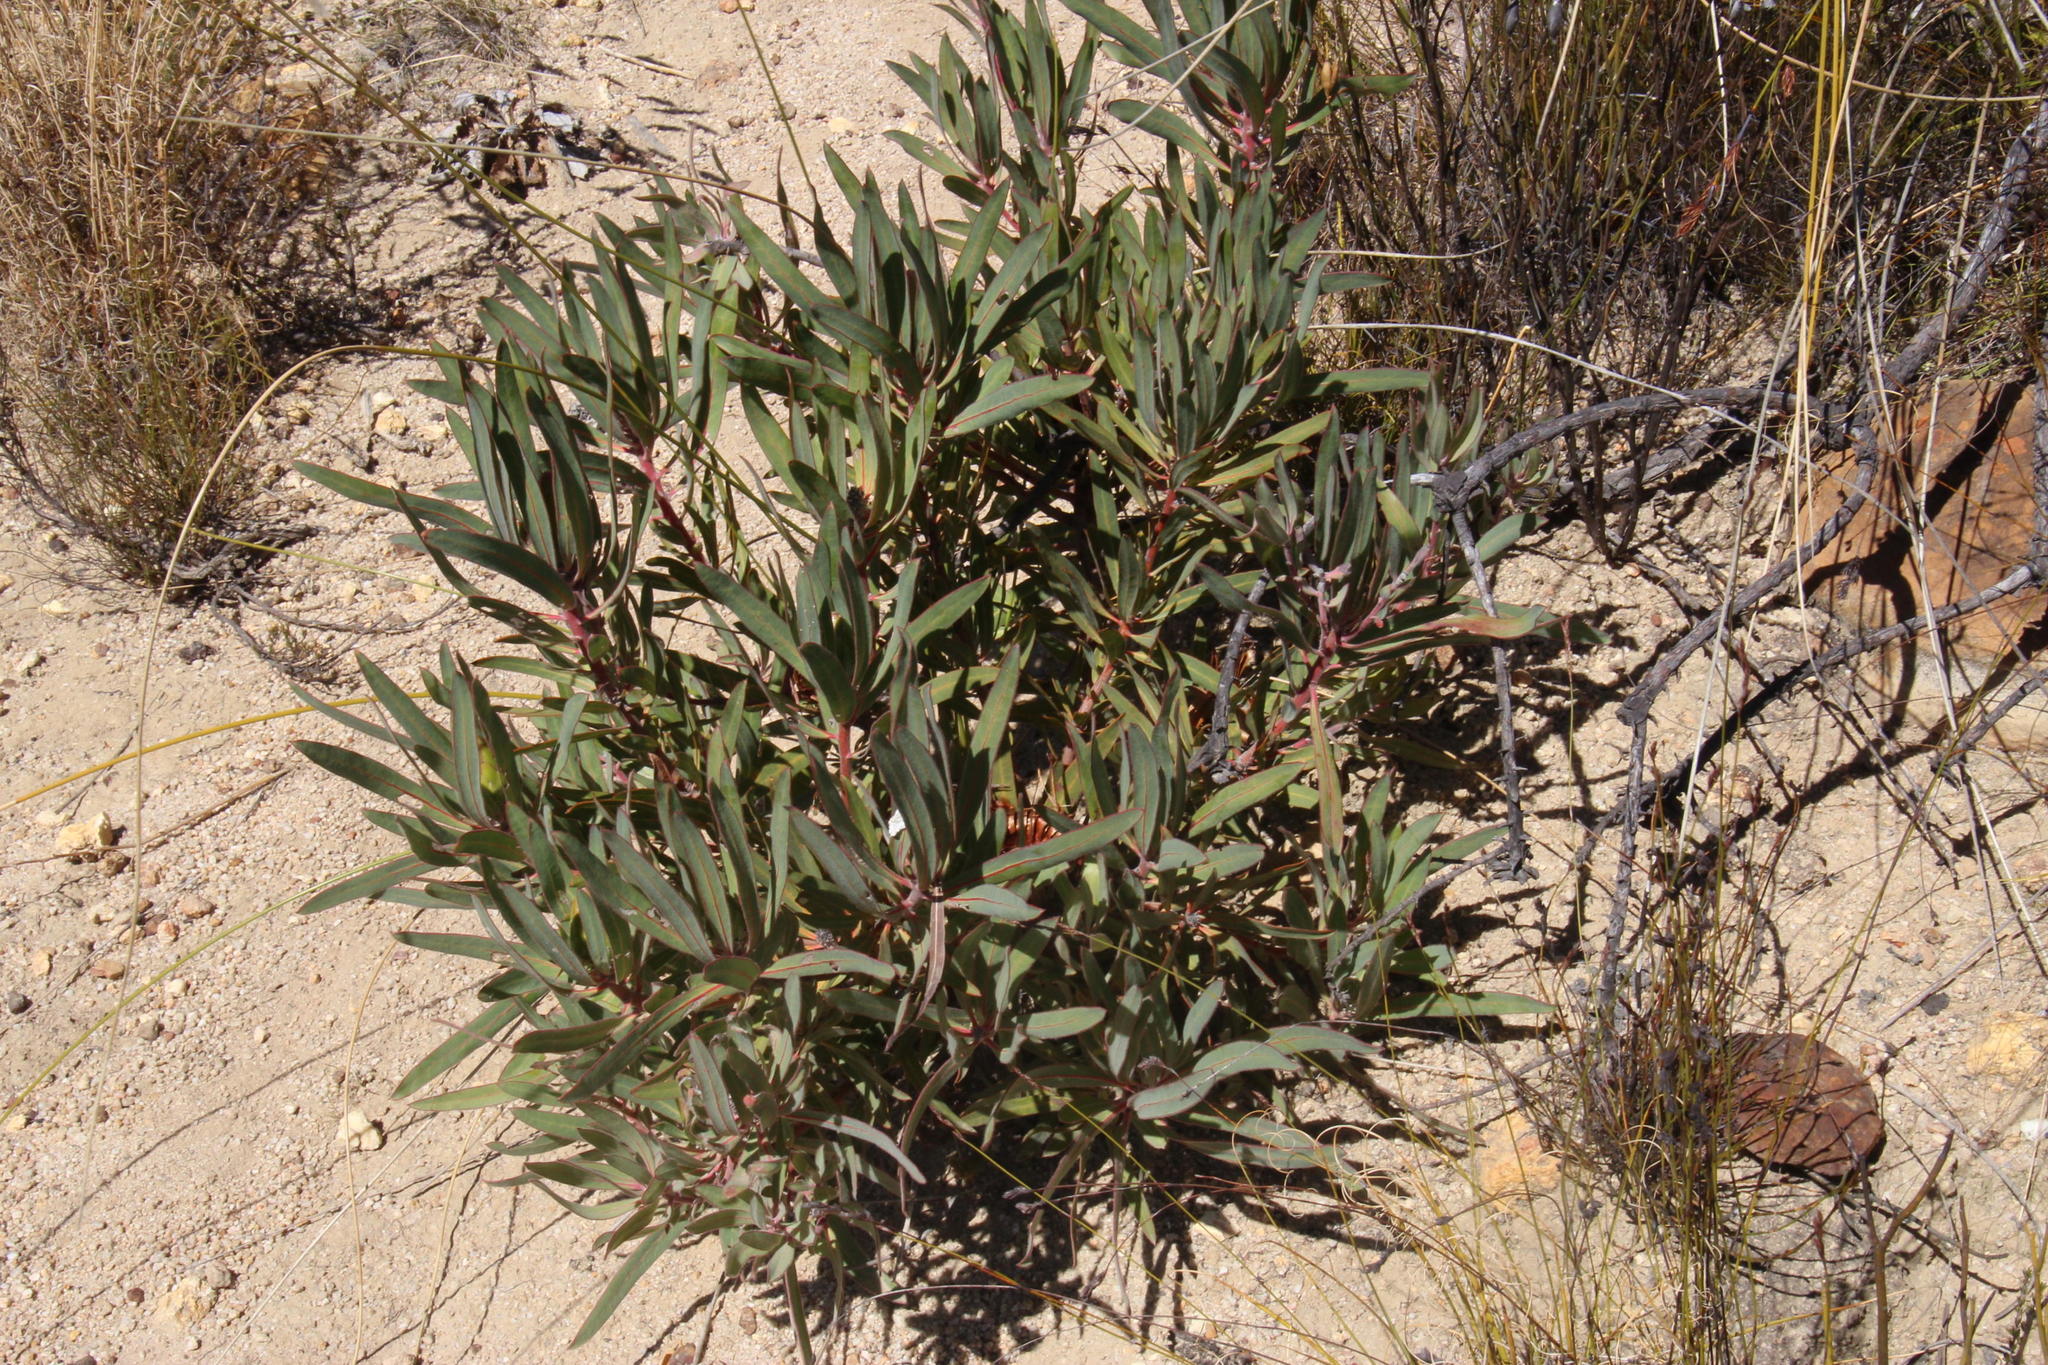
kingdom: Plantae
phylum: Tracheophyta
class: Magnoliopsida
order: Proteales
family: Proteaceae
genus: Protea
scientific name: Protea burchellii
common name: Burchell's sugarbush
